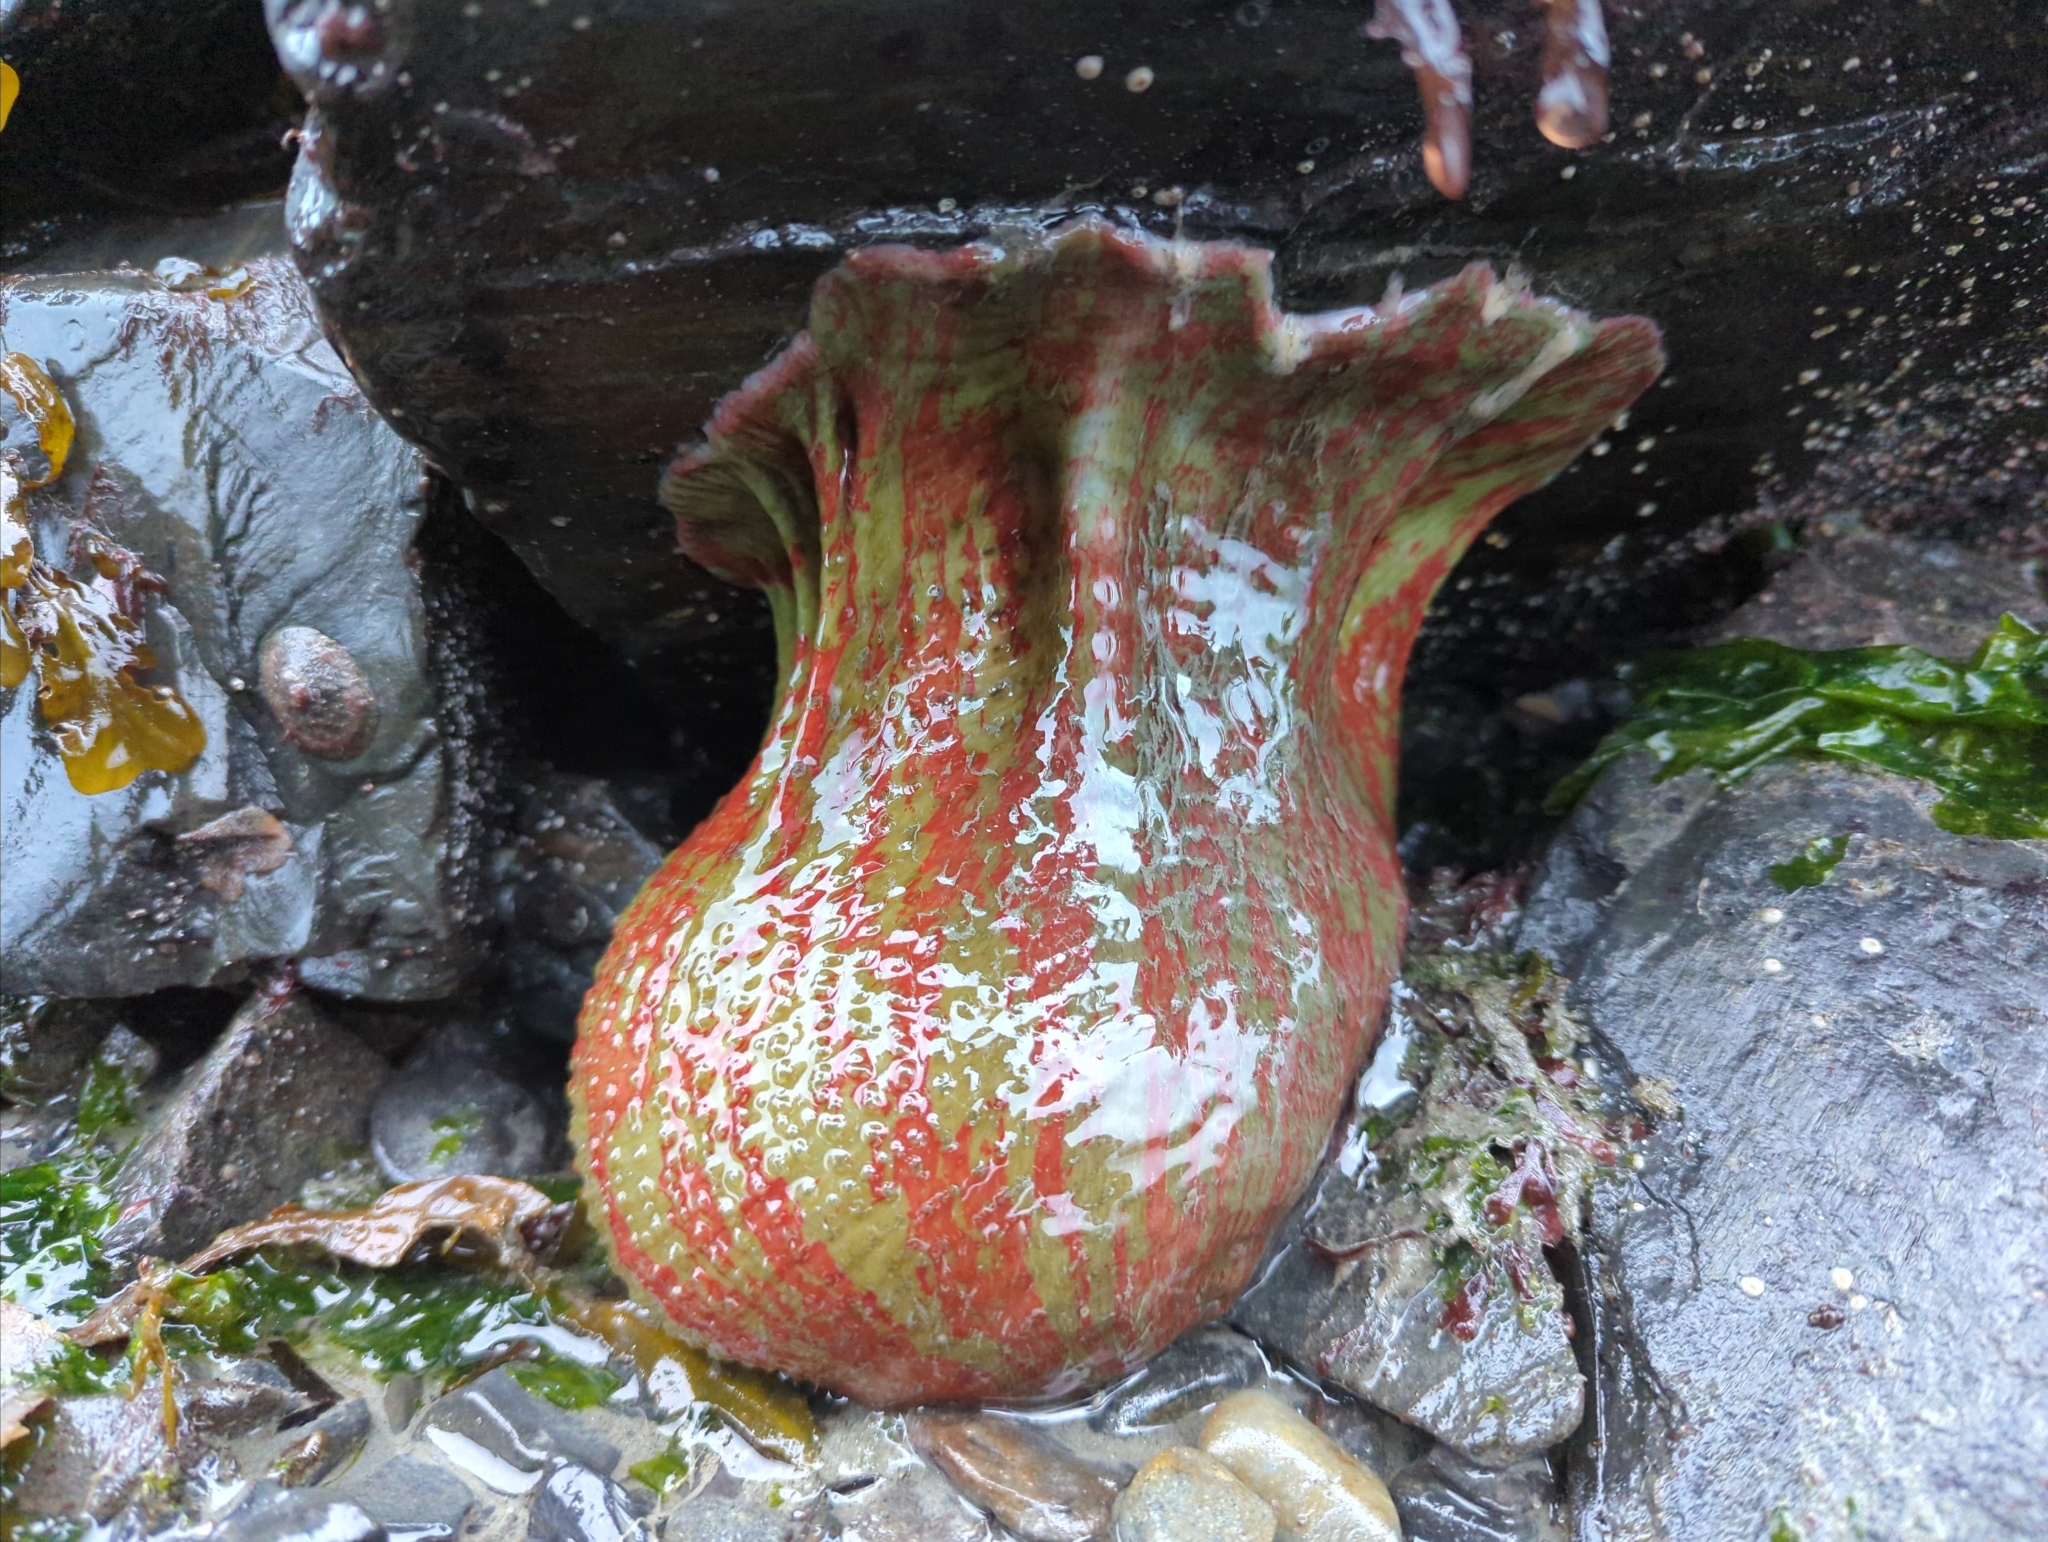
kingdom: Animalia
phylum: Cnidaria
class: Anthozoa
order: Actiniaria
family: Actiniidae
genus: Urticina
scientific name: Urticina grebelnyi
